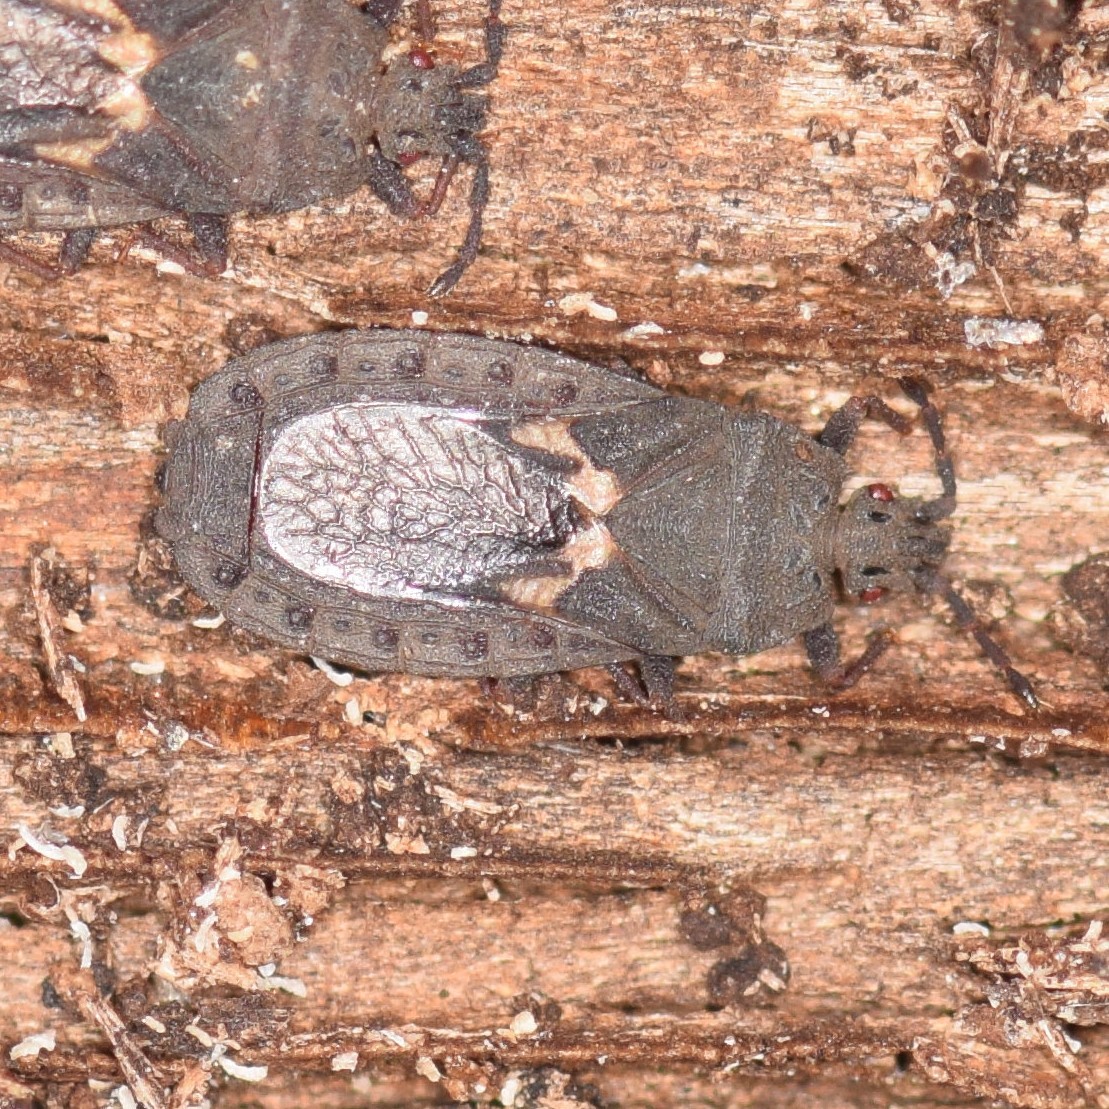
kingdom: Animalia
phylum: Arthropoda
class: Insecta
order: Hemiptera
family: Aradidae
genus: Neuroctenus
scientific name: Neuroctenus elongatus
